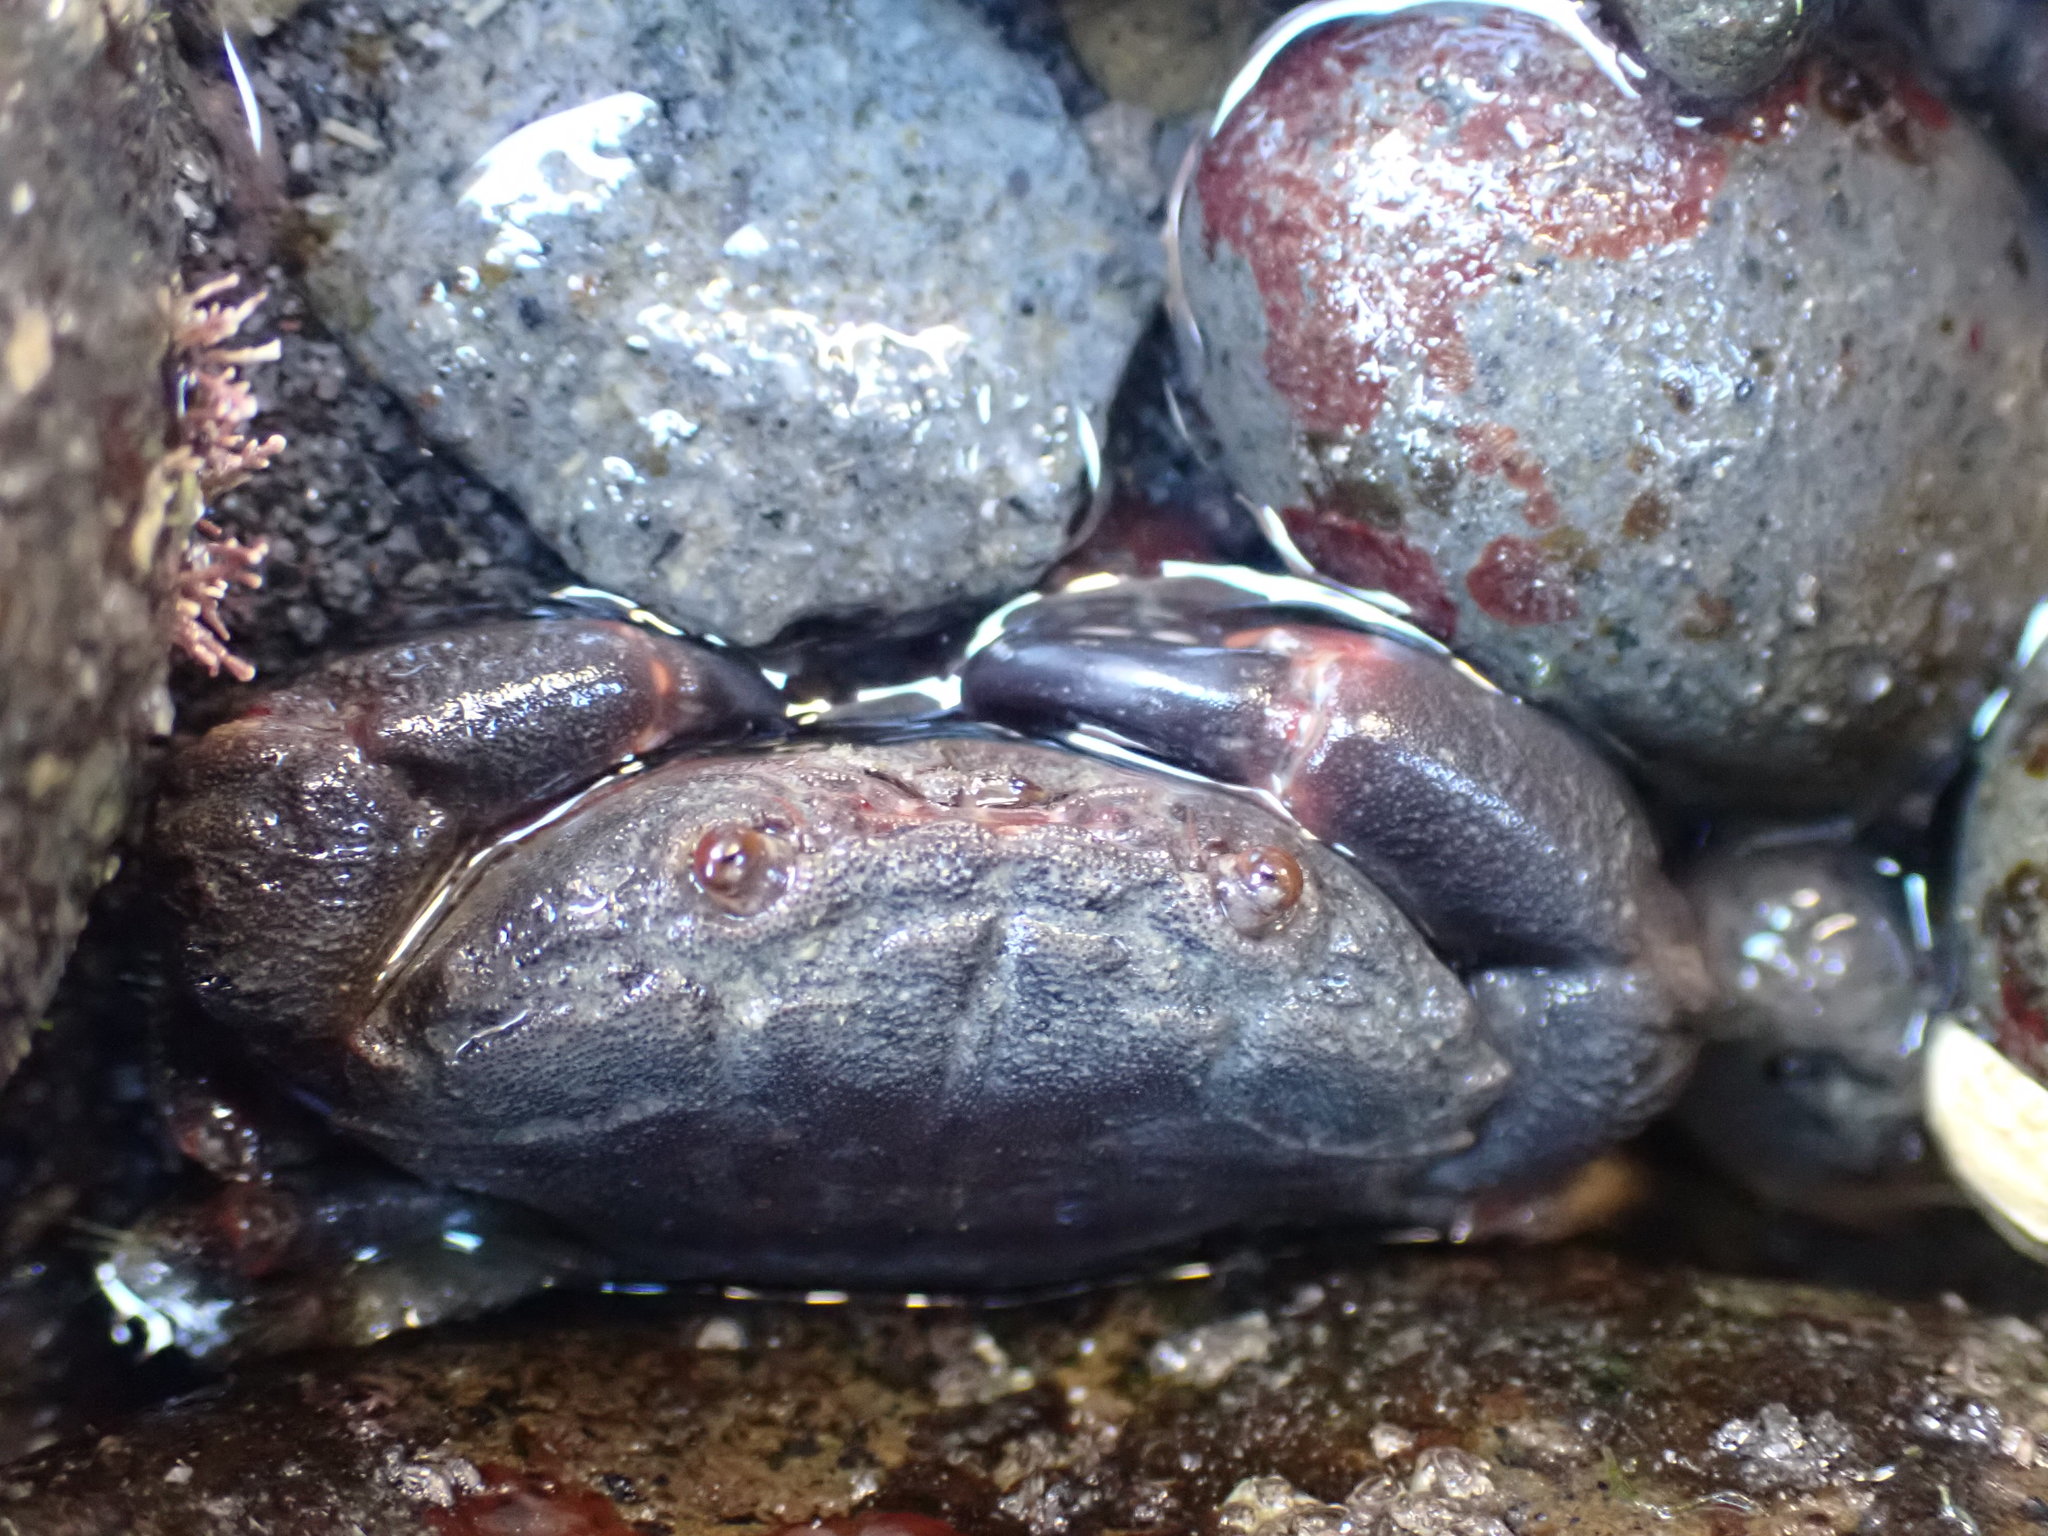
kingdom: Animalia
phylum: Arthropoda
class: Malacostraca
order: Decapoda
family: Oziidae
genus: Ozius
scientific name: Ozius deplanatus
